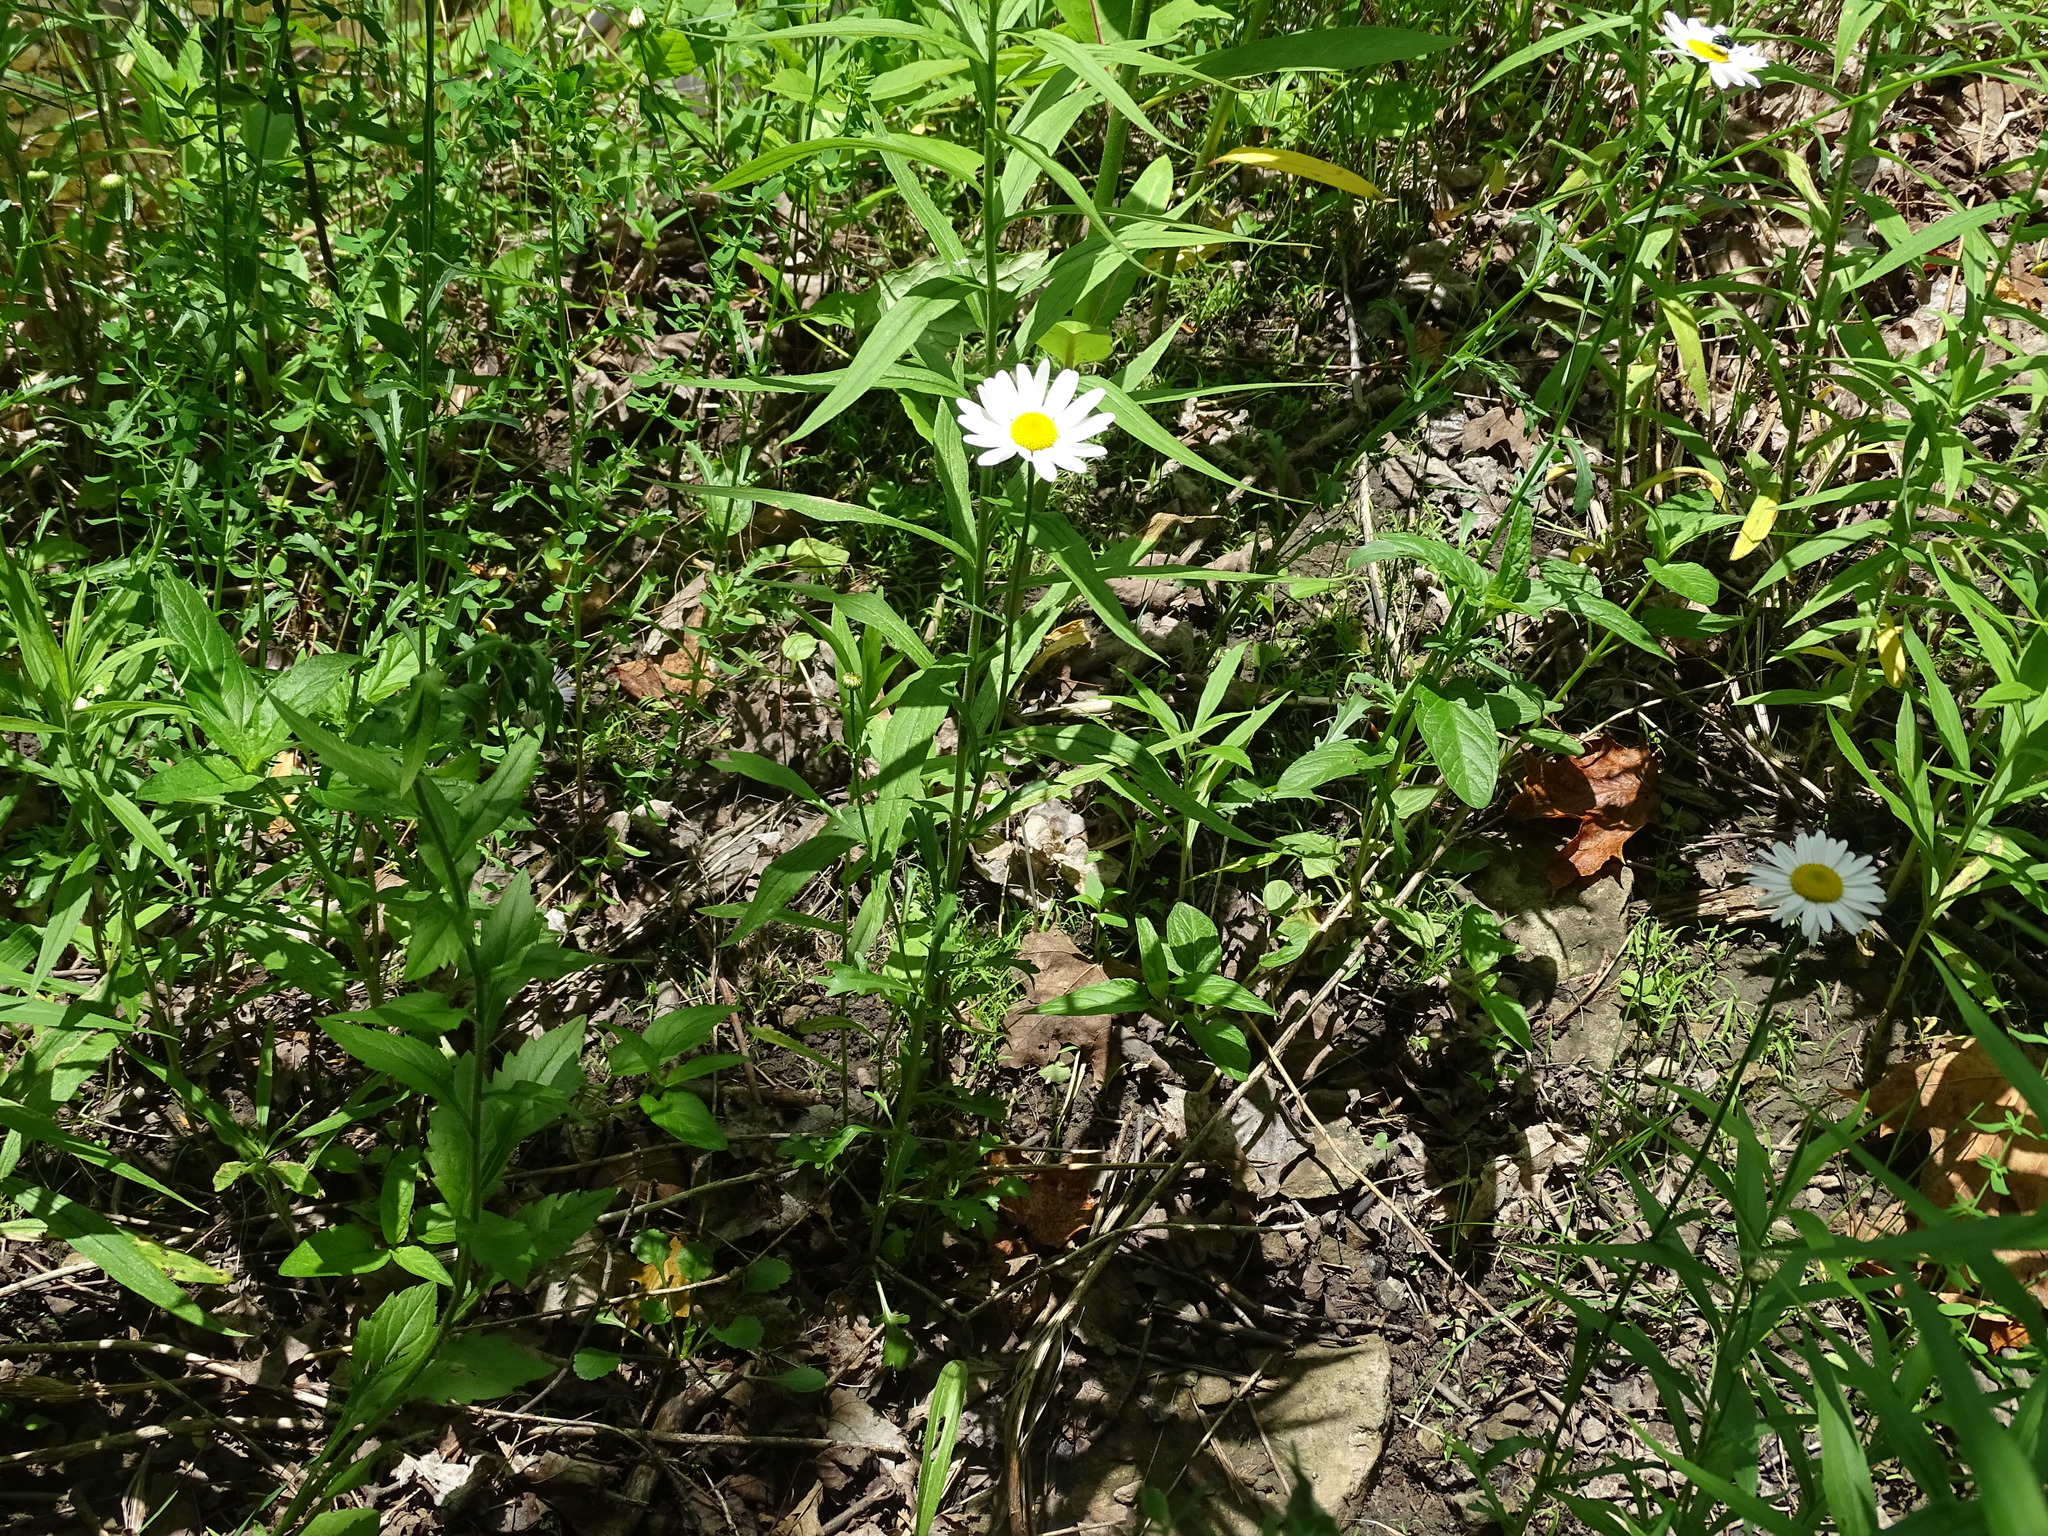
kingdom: Plantae
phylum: Tracheophyta
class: Magnoliopsida
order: Asterales
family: Asteraceae
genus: Leucanthemum
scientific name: Leucanthemum vulgare
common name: Oxeye daisy
